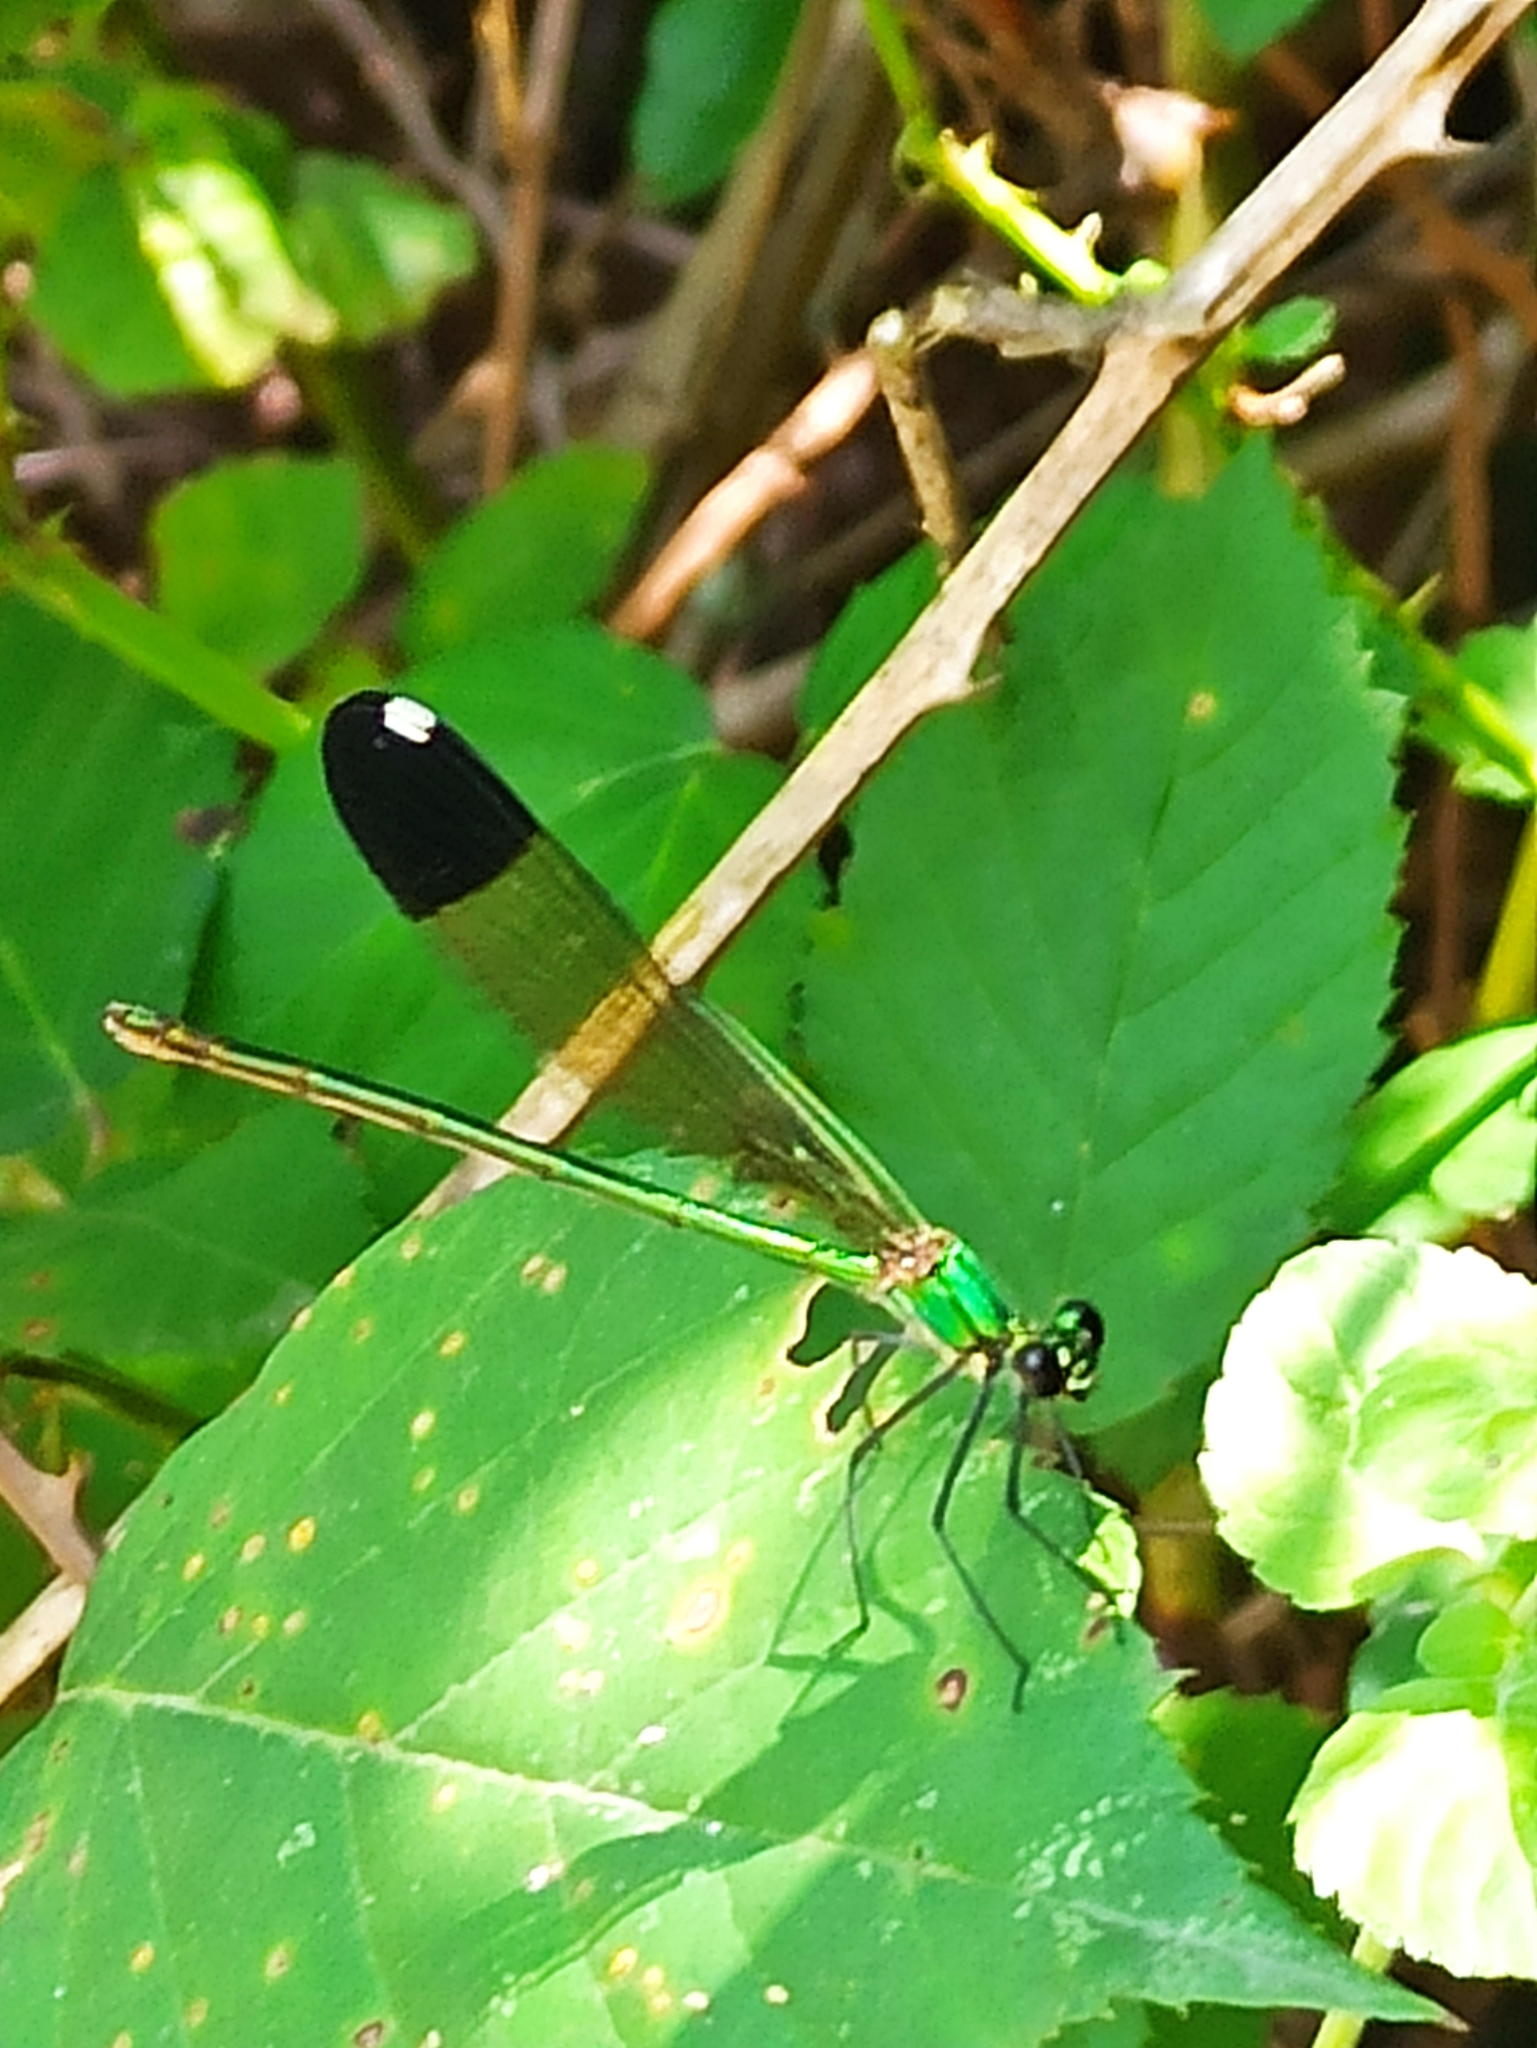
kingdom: Animalia
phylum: Arthropoda
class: Insecta
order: Odonata
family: Calopterygidae
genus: Calopteryx
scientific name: Calopteryx orientalis
